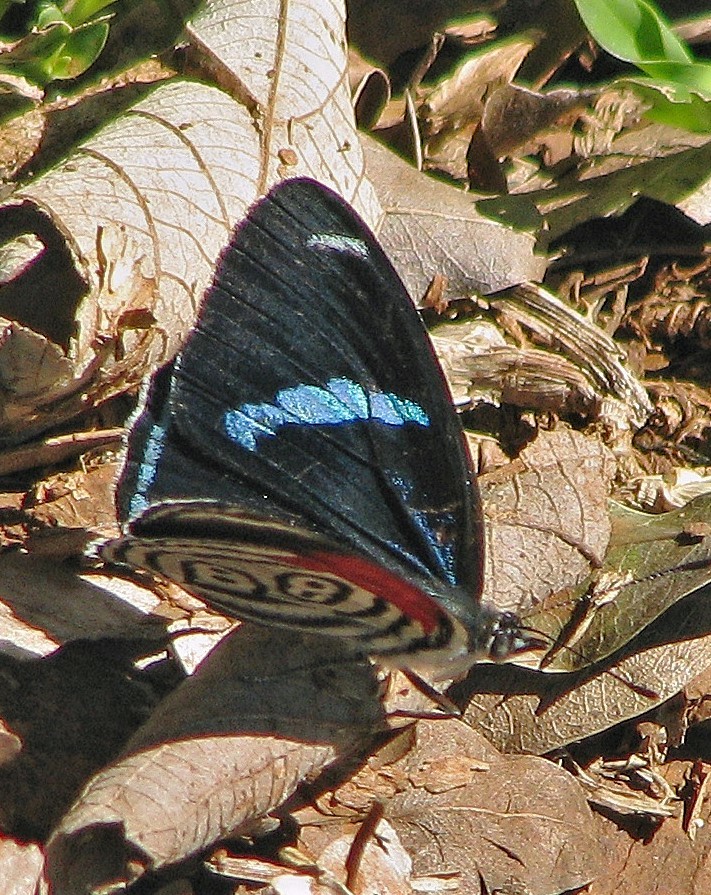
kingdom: Animalia
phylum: Arthropoda
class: Insecta
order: Lepidoptera
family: Nymphalidae
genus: Diaethria
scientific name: Diaethria clymena
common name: Widespread eighty-eight
